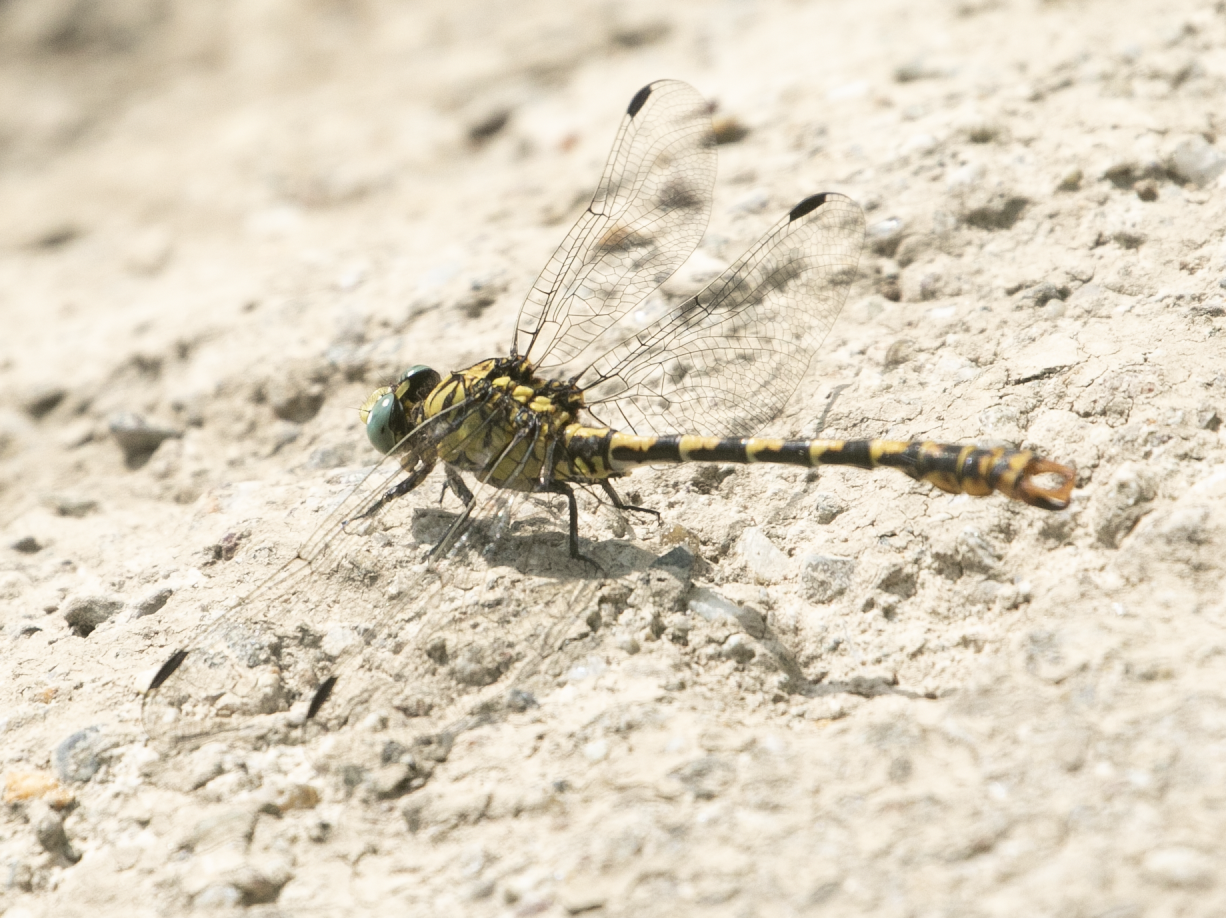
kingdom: Animalia
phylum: Arthropoda
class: Insecta
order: Odonata
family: Gomphidae
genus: Onychogomphus
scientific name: Onychogomphus forcipatus
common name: Small pincertail
